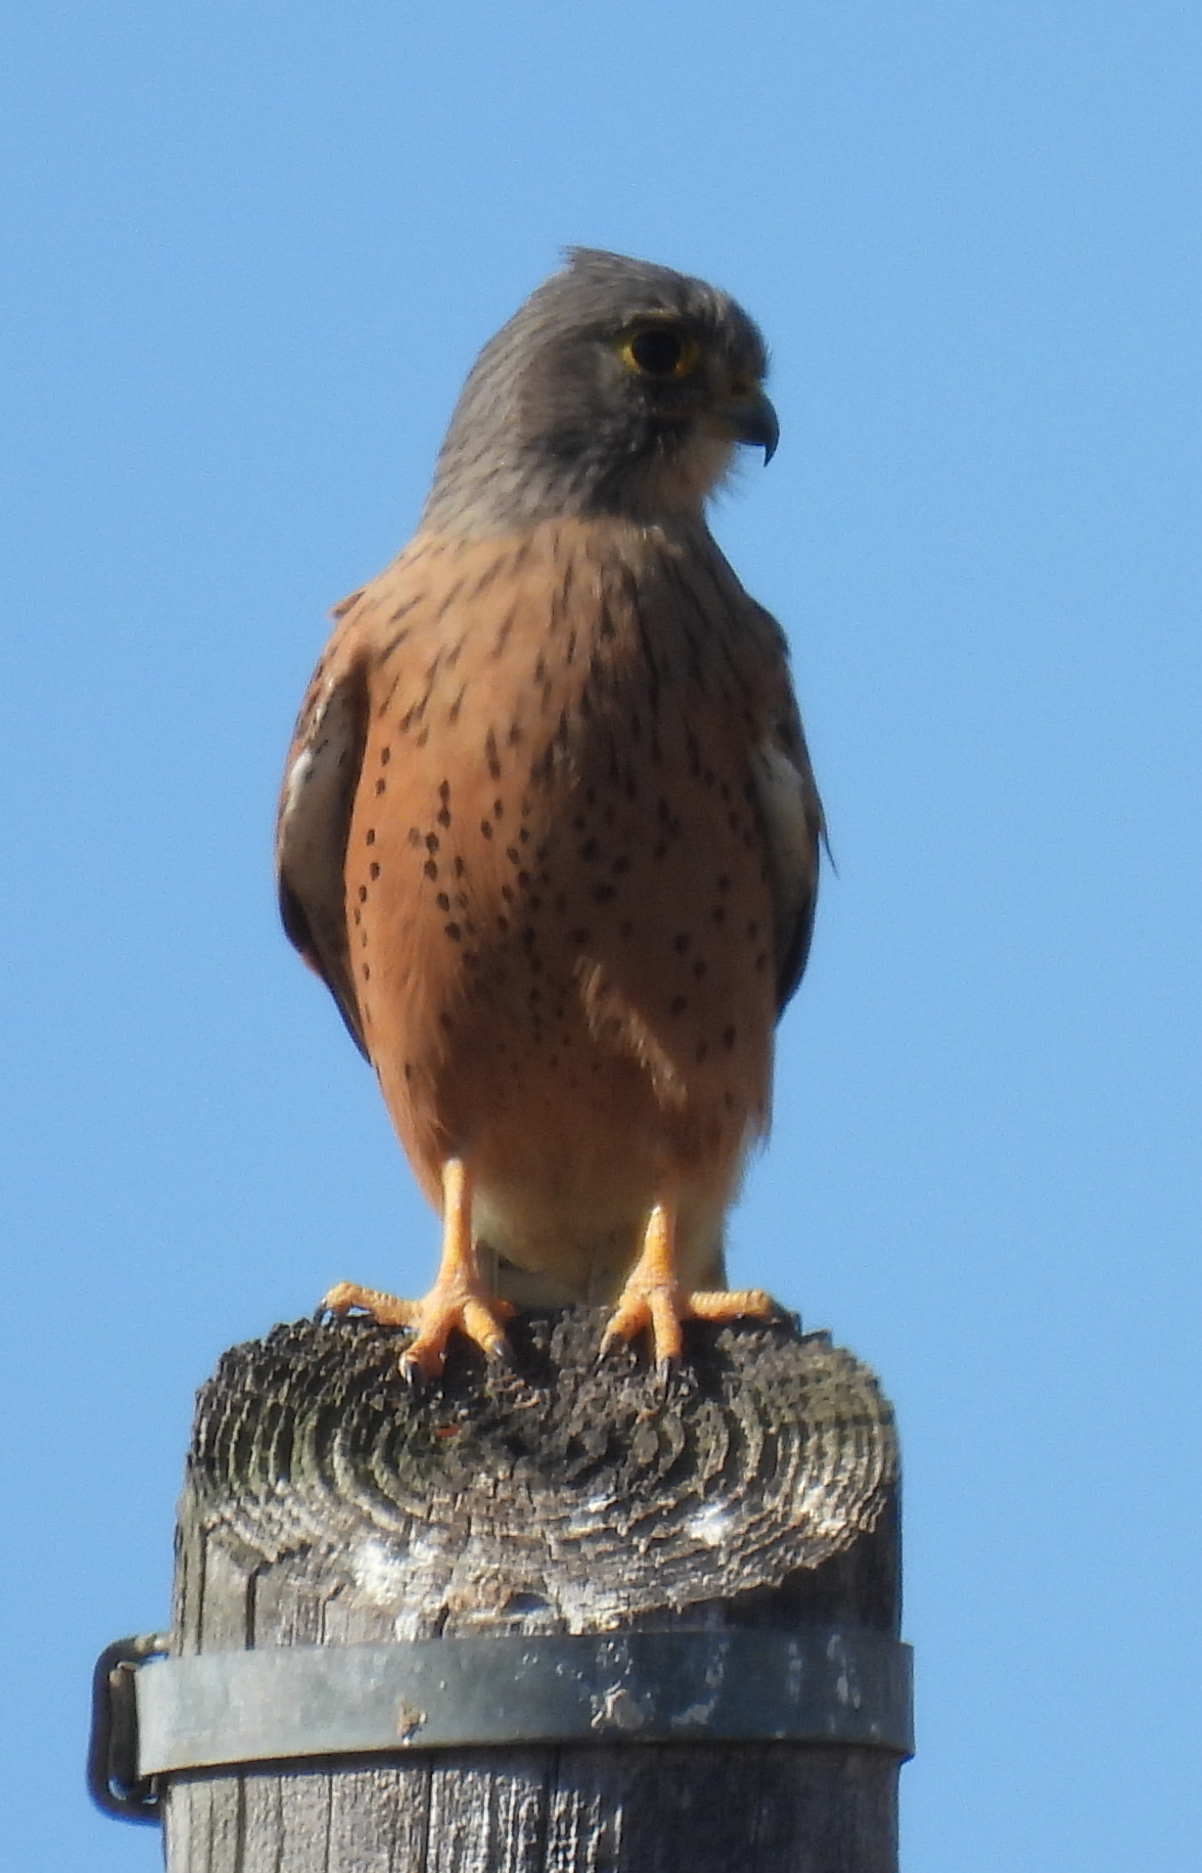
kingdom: Animalia
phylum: Chordata
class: Aves
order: Falconiformes
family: Falconidae
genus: Falco
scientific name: Falco rupicolus
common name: Rock kestrel
